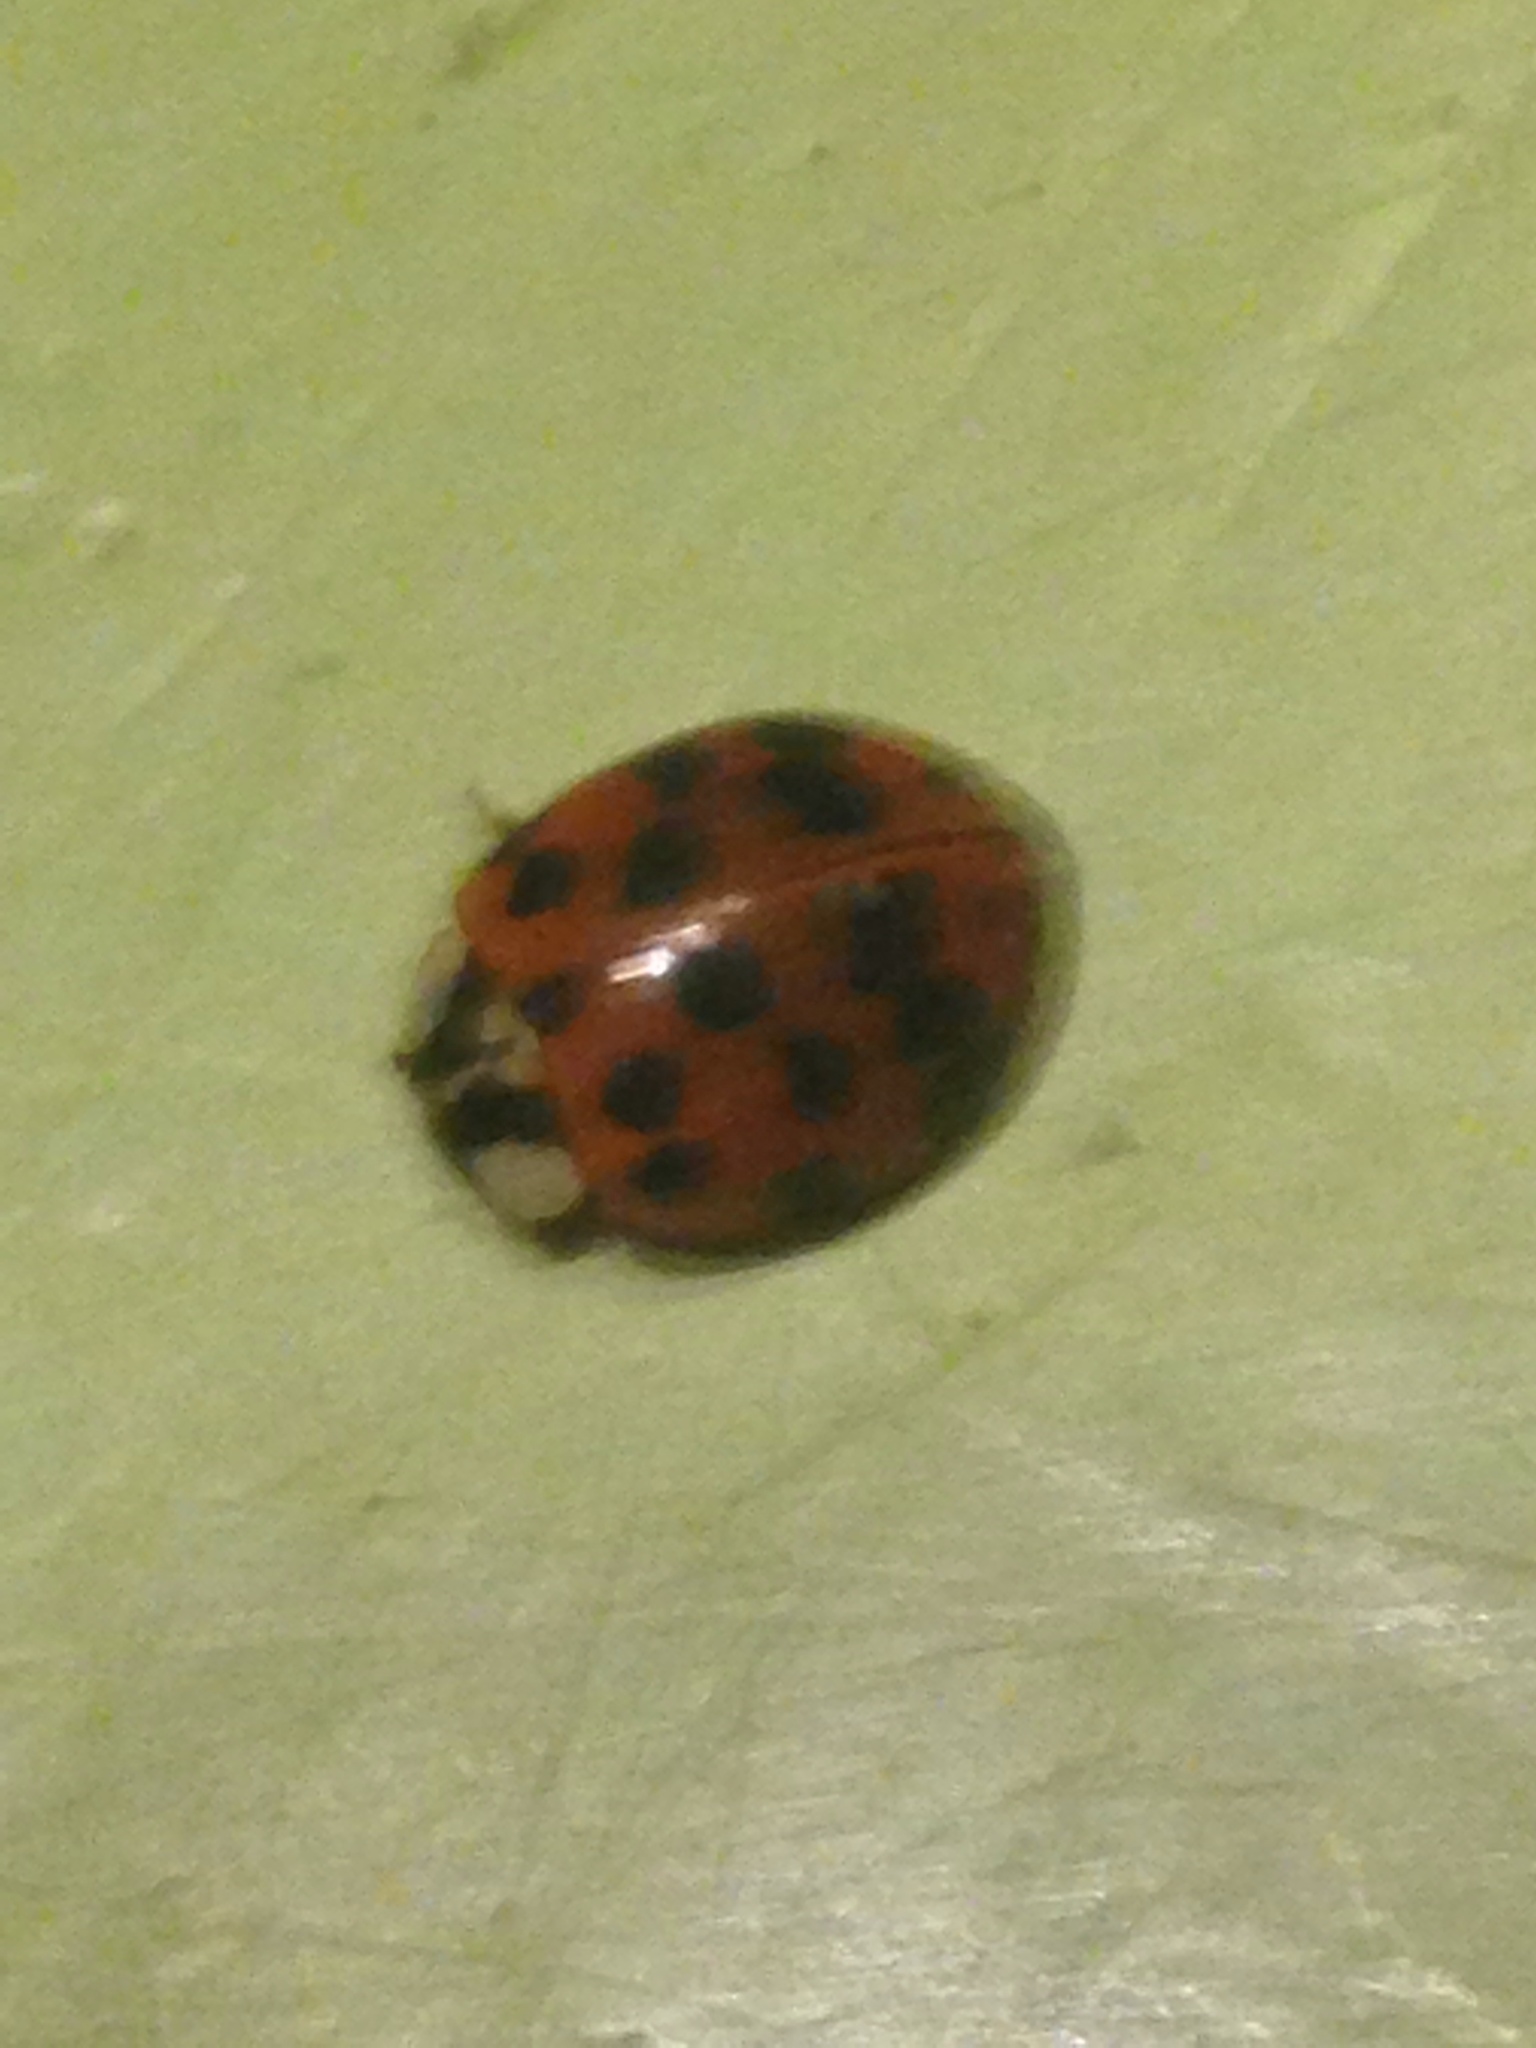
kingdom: Animalia
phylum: Arthropoda
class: Insecta
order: Coleoptera
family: Coccinellidae
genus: Harmonia
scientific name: Harmonia axyridis
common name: Harlequin ladybird
